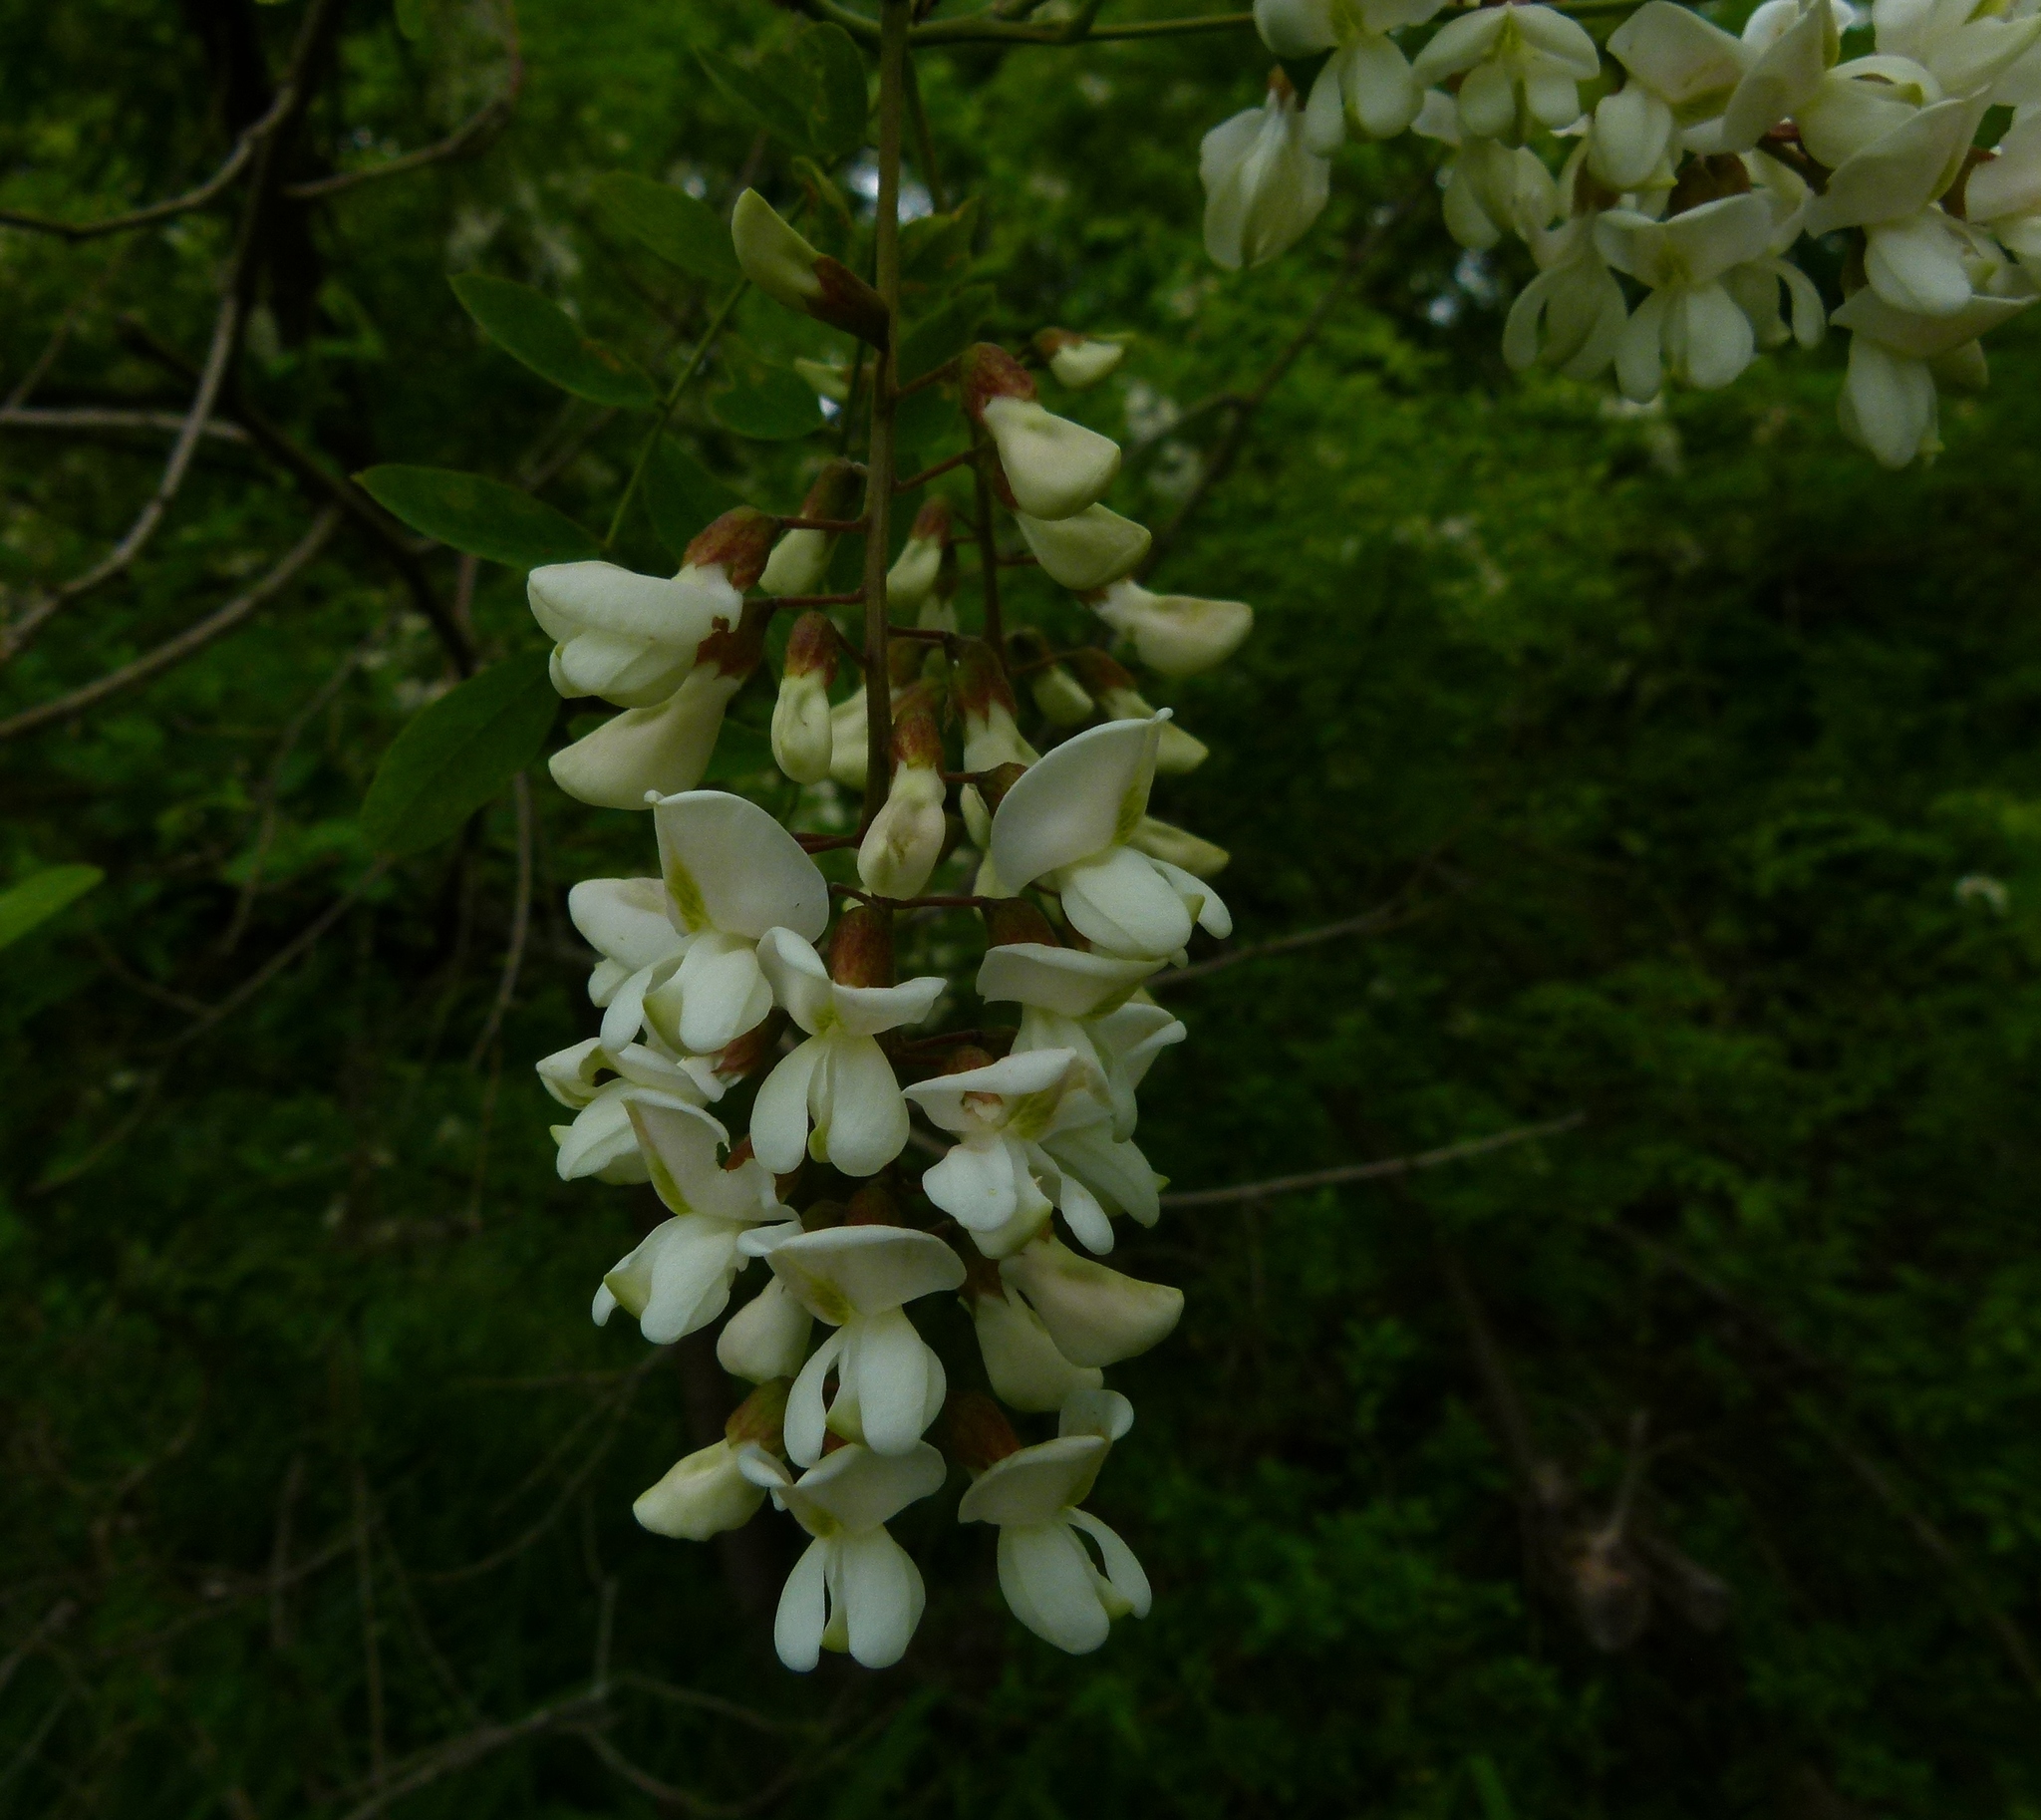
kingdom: Plantae
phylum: Tracheophyta
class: Magnoliopsida
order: Fabales
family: Fabaceae
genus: Robinia
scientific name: Robinia pseudoacacia
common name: Black locust
